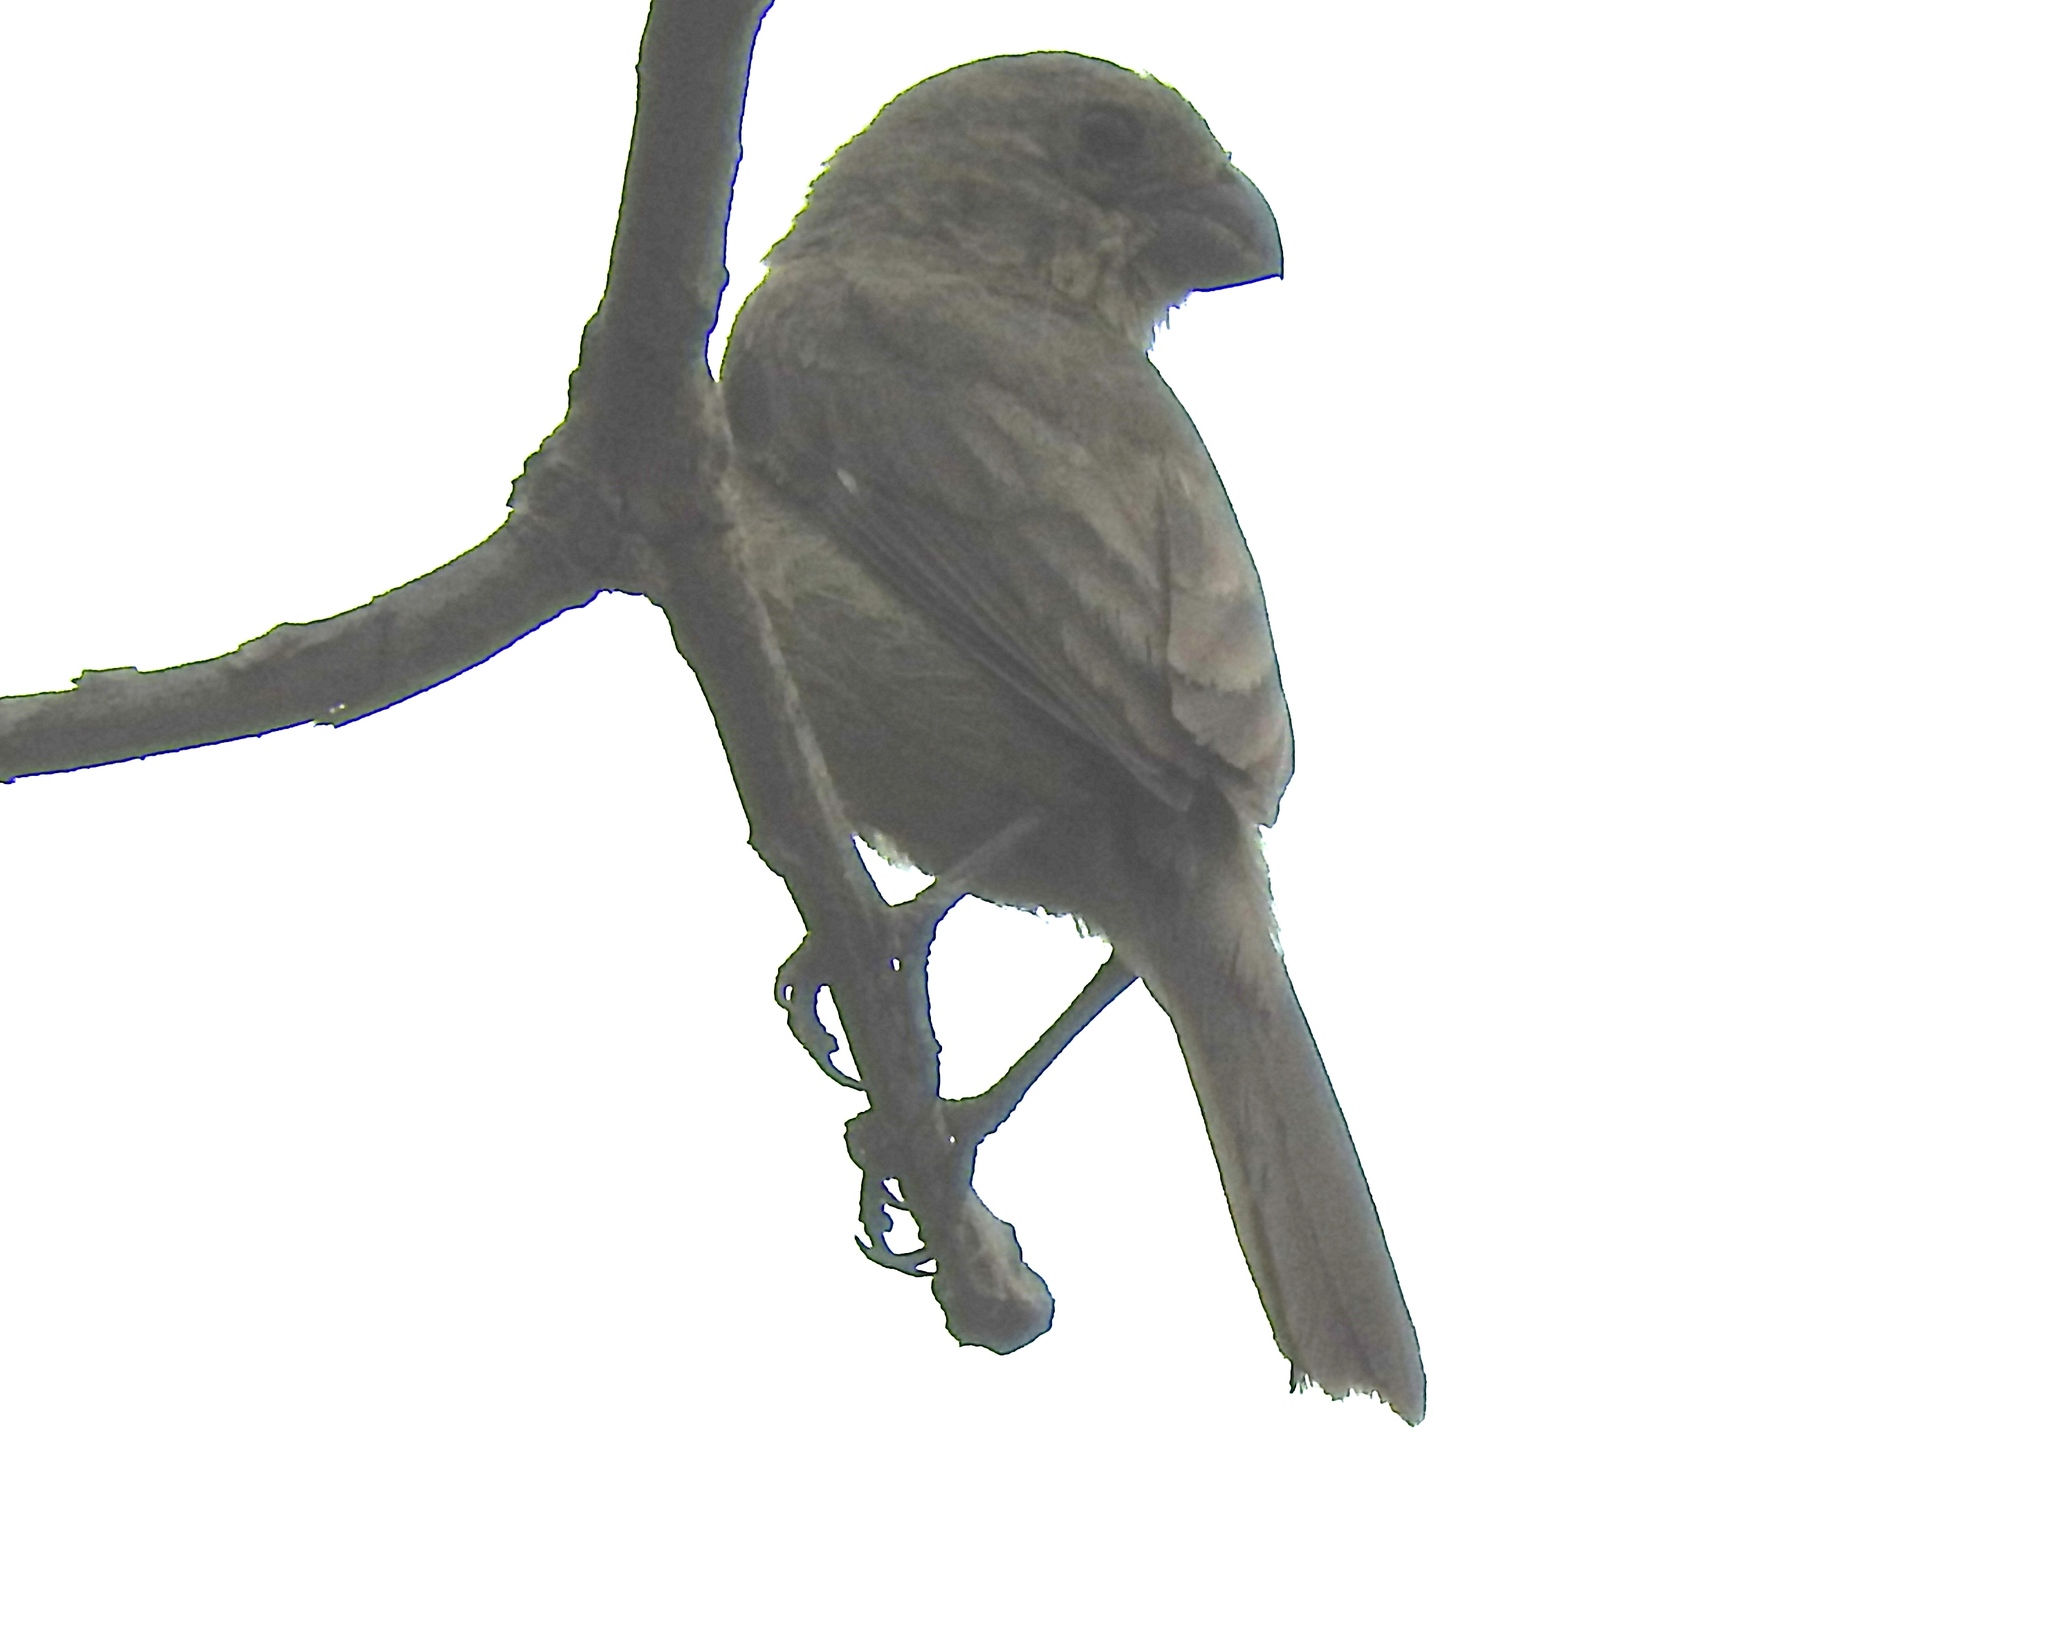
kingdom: Animalia
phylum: Chordata
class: Aves
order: Passeriformes
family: Thraupidae
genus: Sporophila
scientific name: Sporophila torqueola
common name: White-collared seedeater
